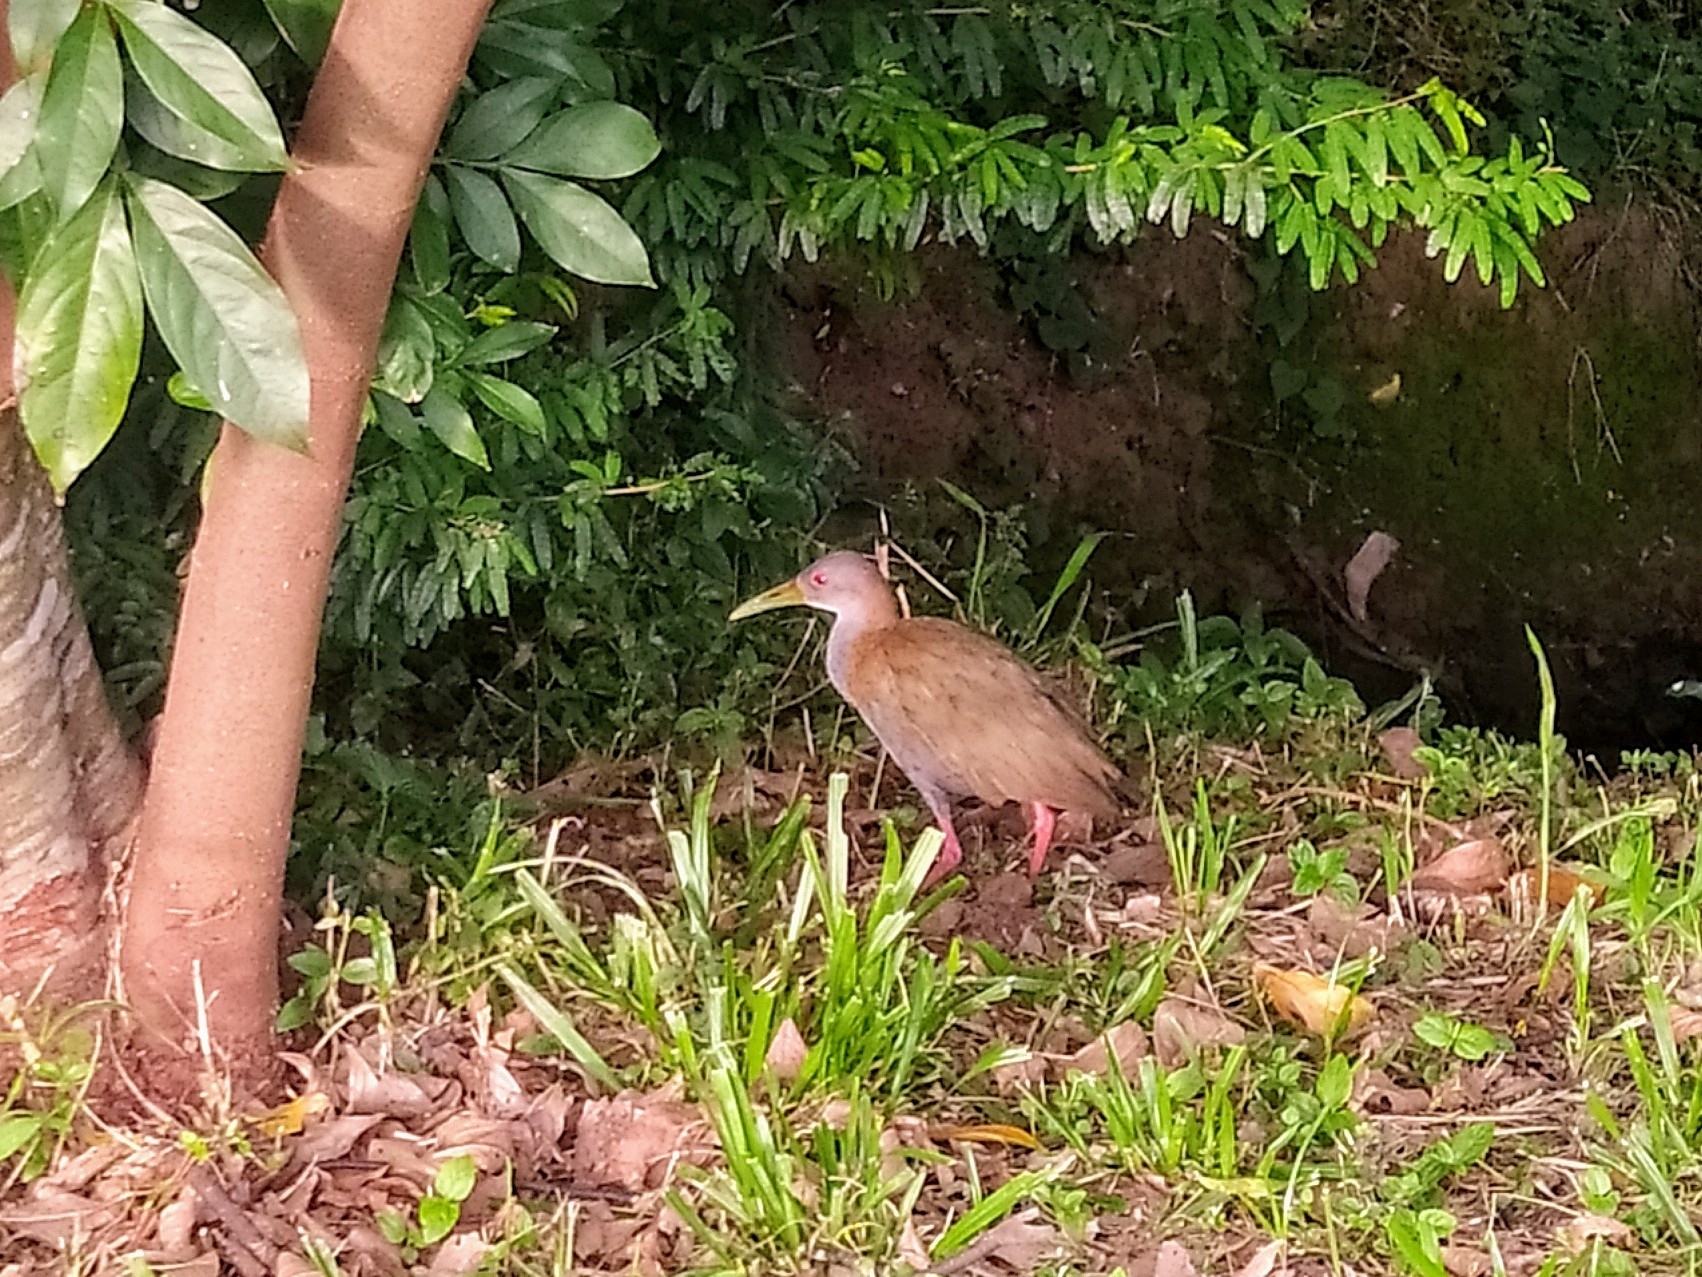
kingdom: Animalia
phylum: Chordata
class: Aves
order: Gruiformes
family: Rallidae
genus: Aramides
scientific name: Aramides saracura
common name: Slaty-breasted wood rail
